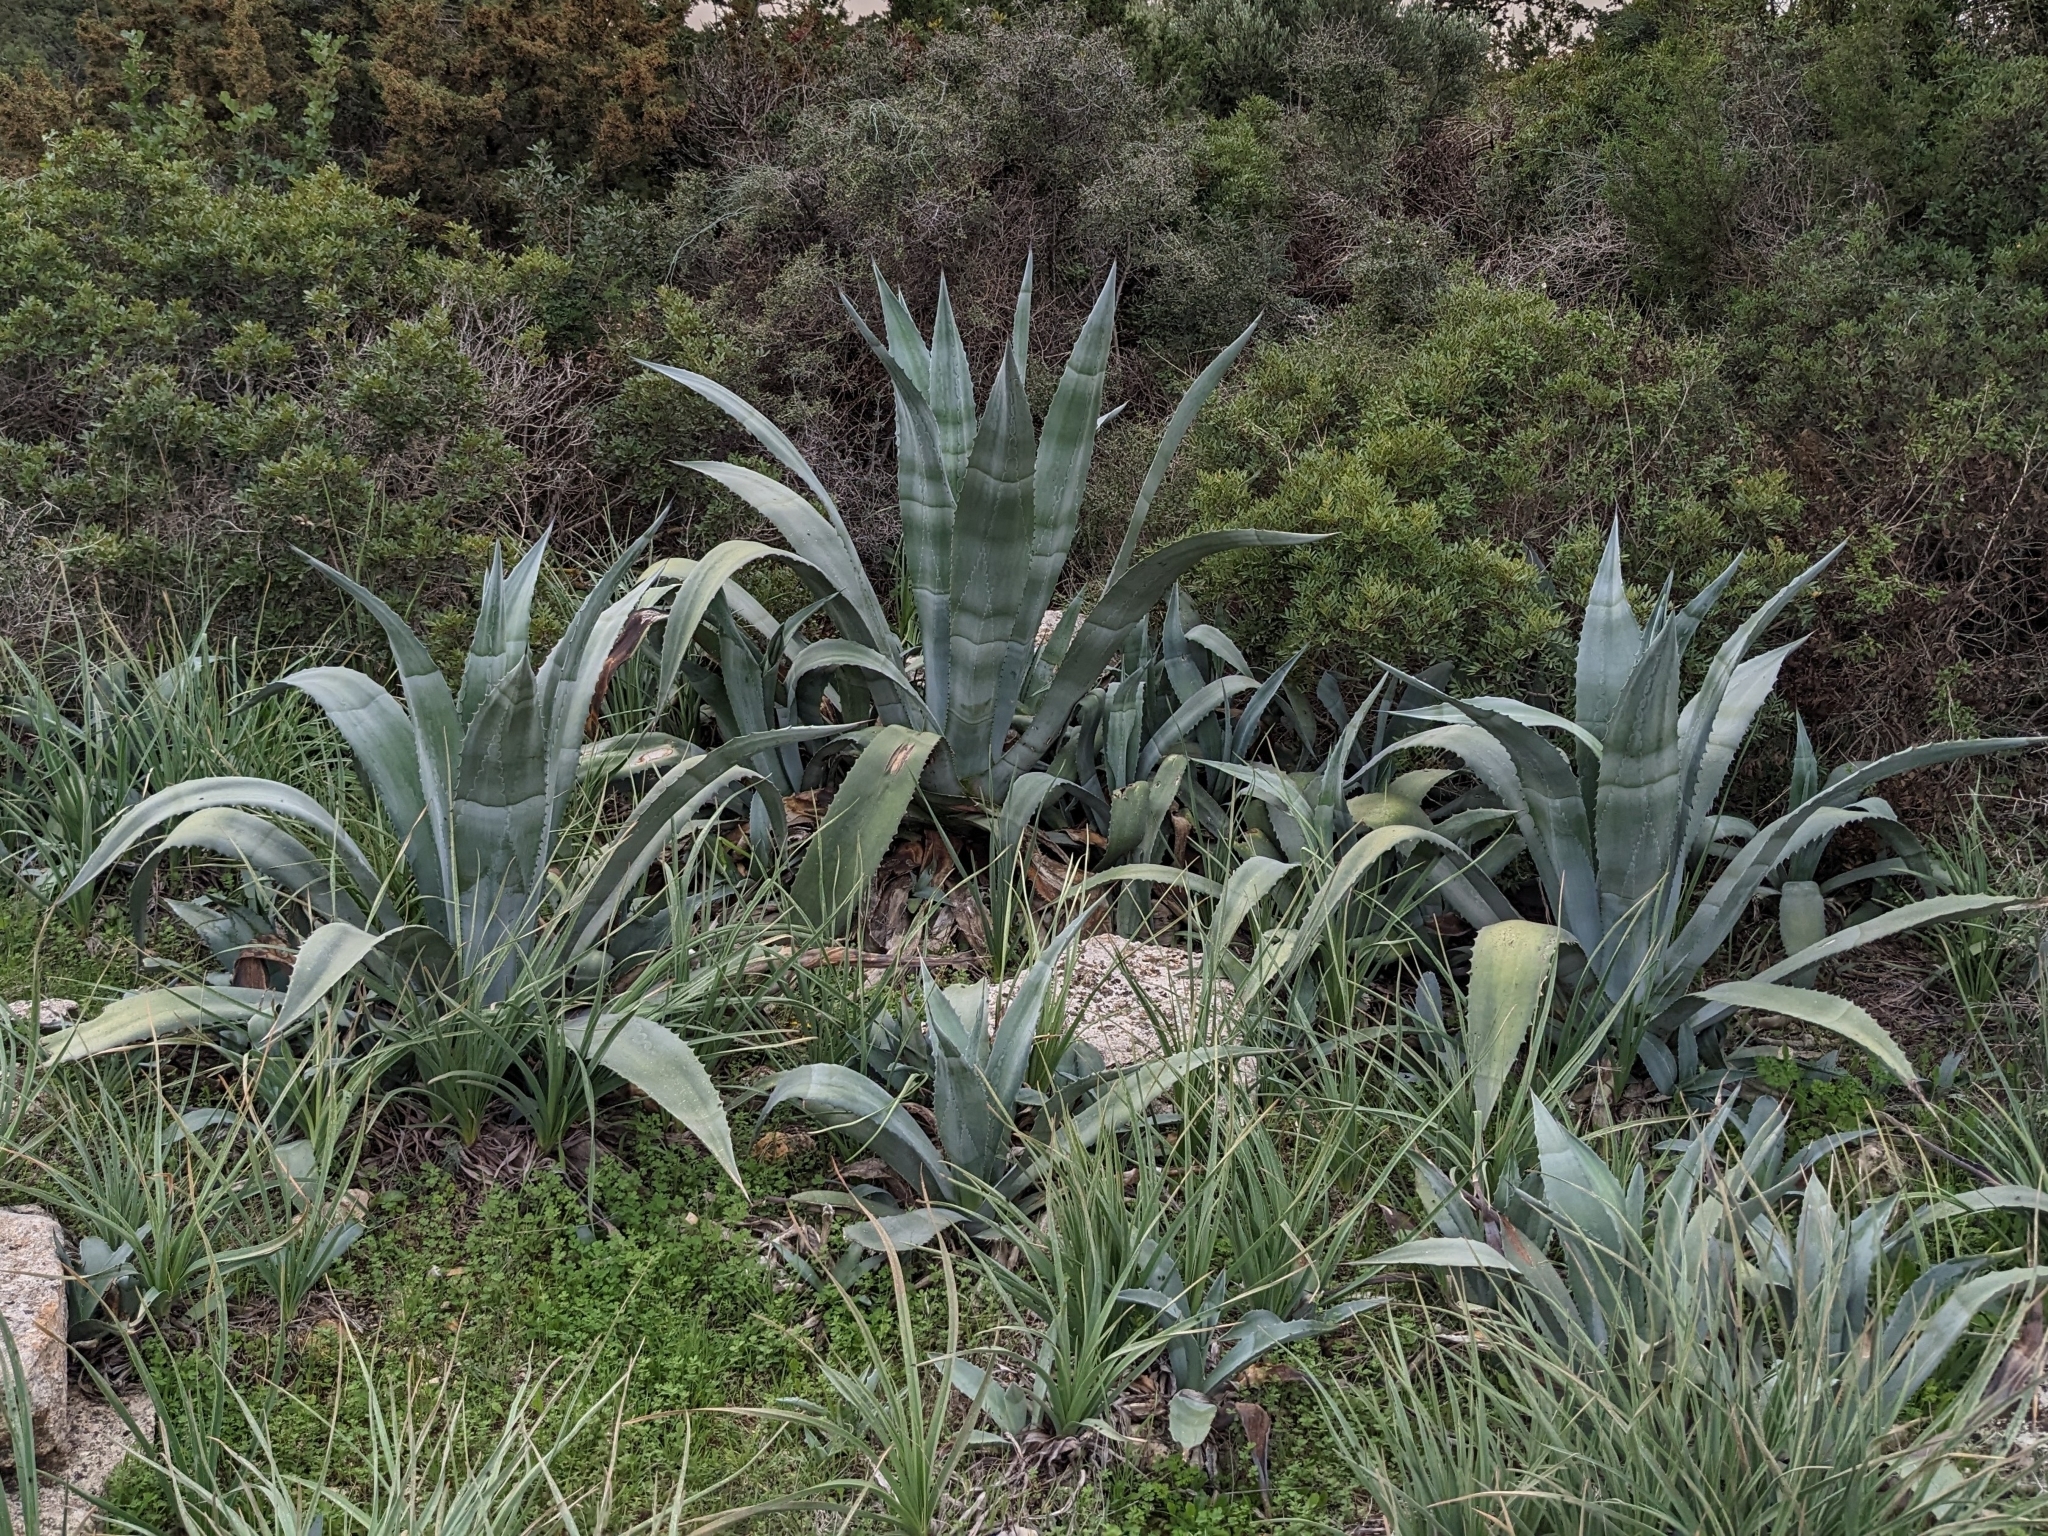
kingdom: Plantae
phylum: Tracheophyta
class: Liliopsida
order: Asparagales
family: Asparagaceae
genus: Agave
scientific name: Agave americana
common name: Centuryplant
